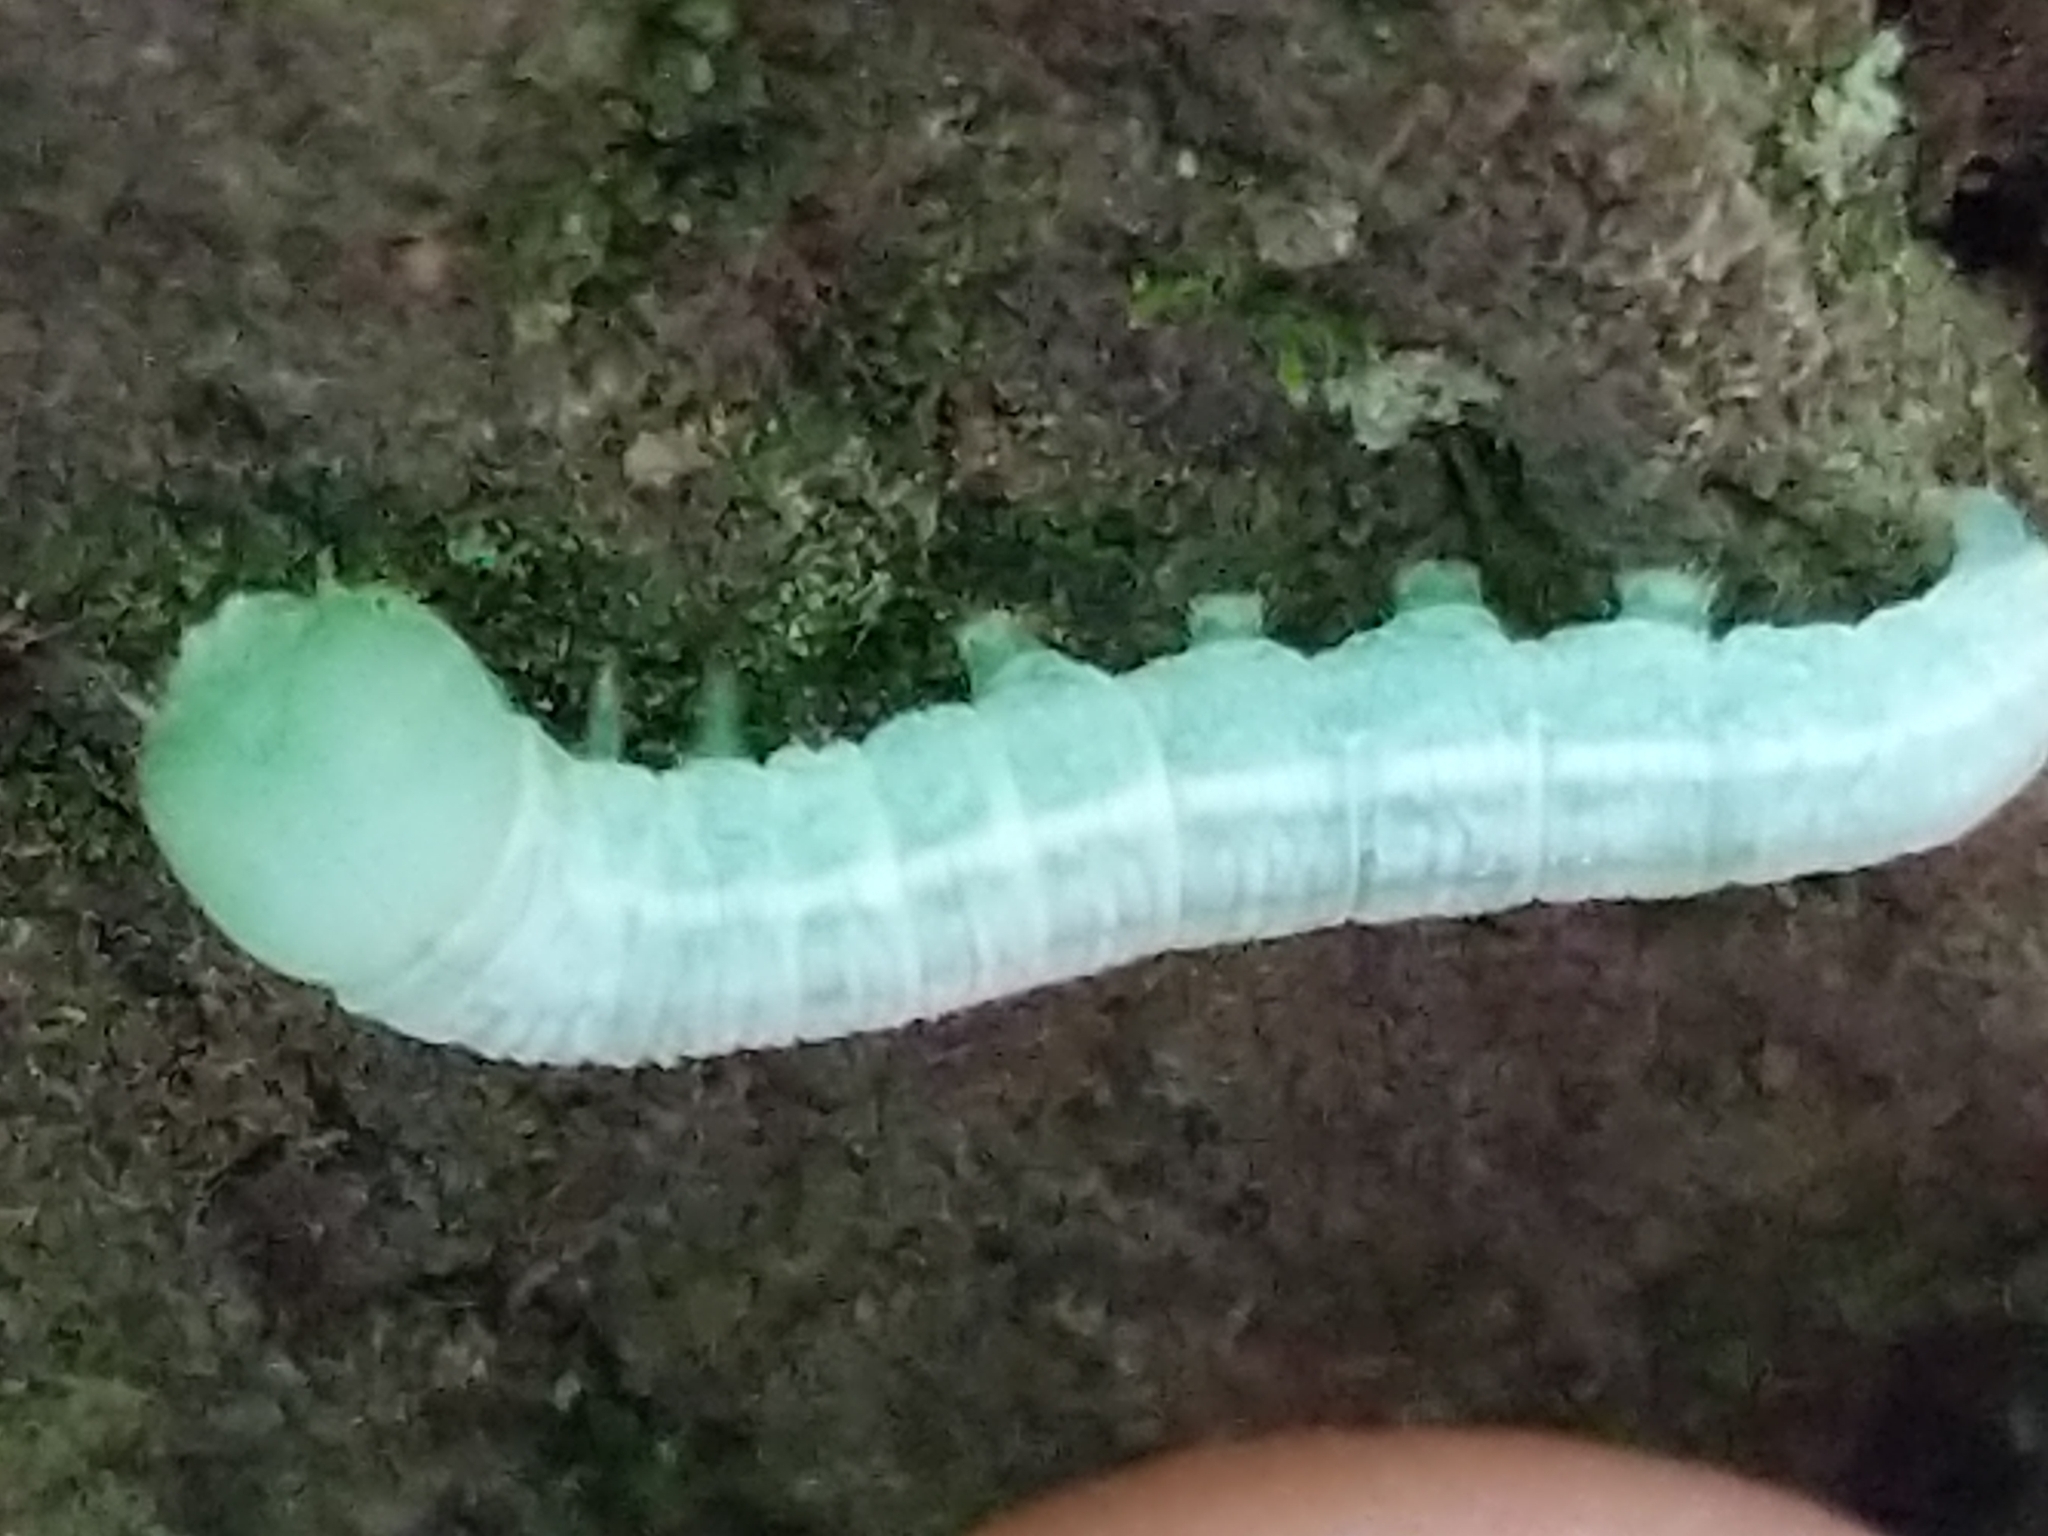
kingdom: Animalia
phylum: Arthropoda
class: Insecta
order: Lepidoptera
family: Notodontidae
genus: Nadata
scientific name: Nadata gibbosa
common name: White-dotted prominent
